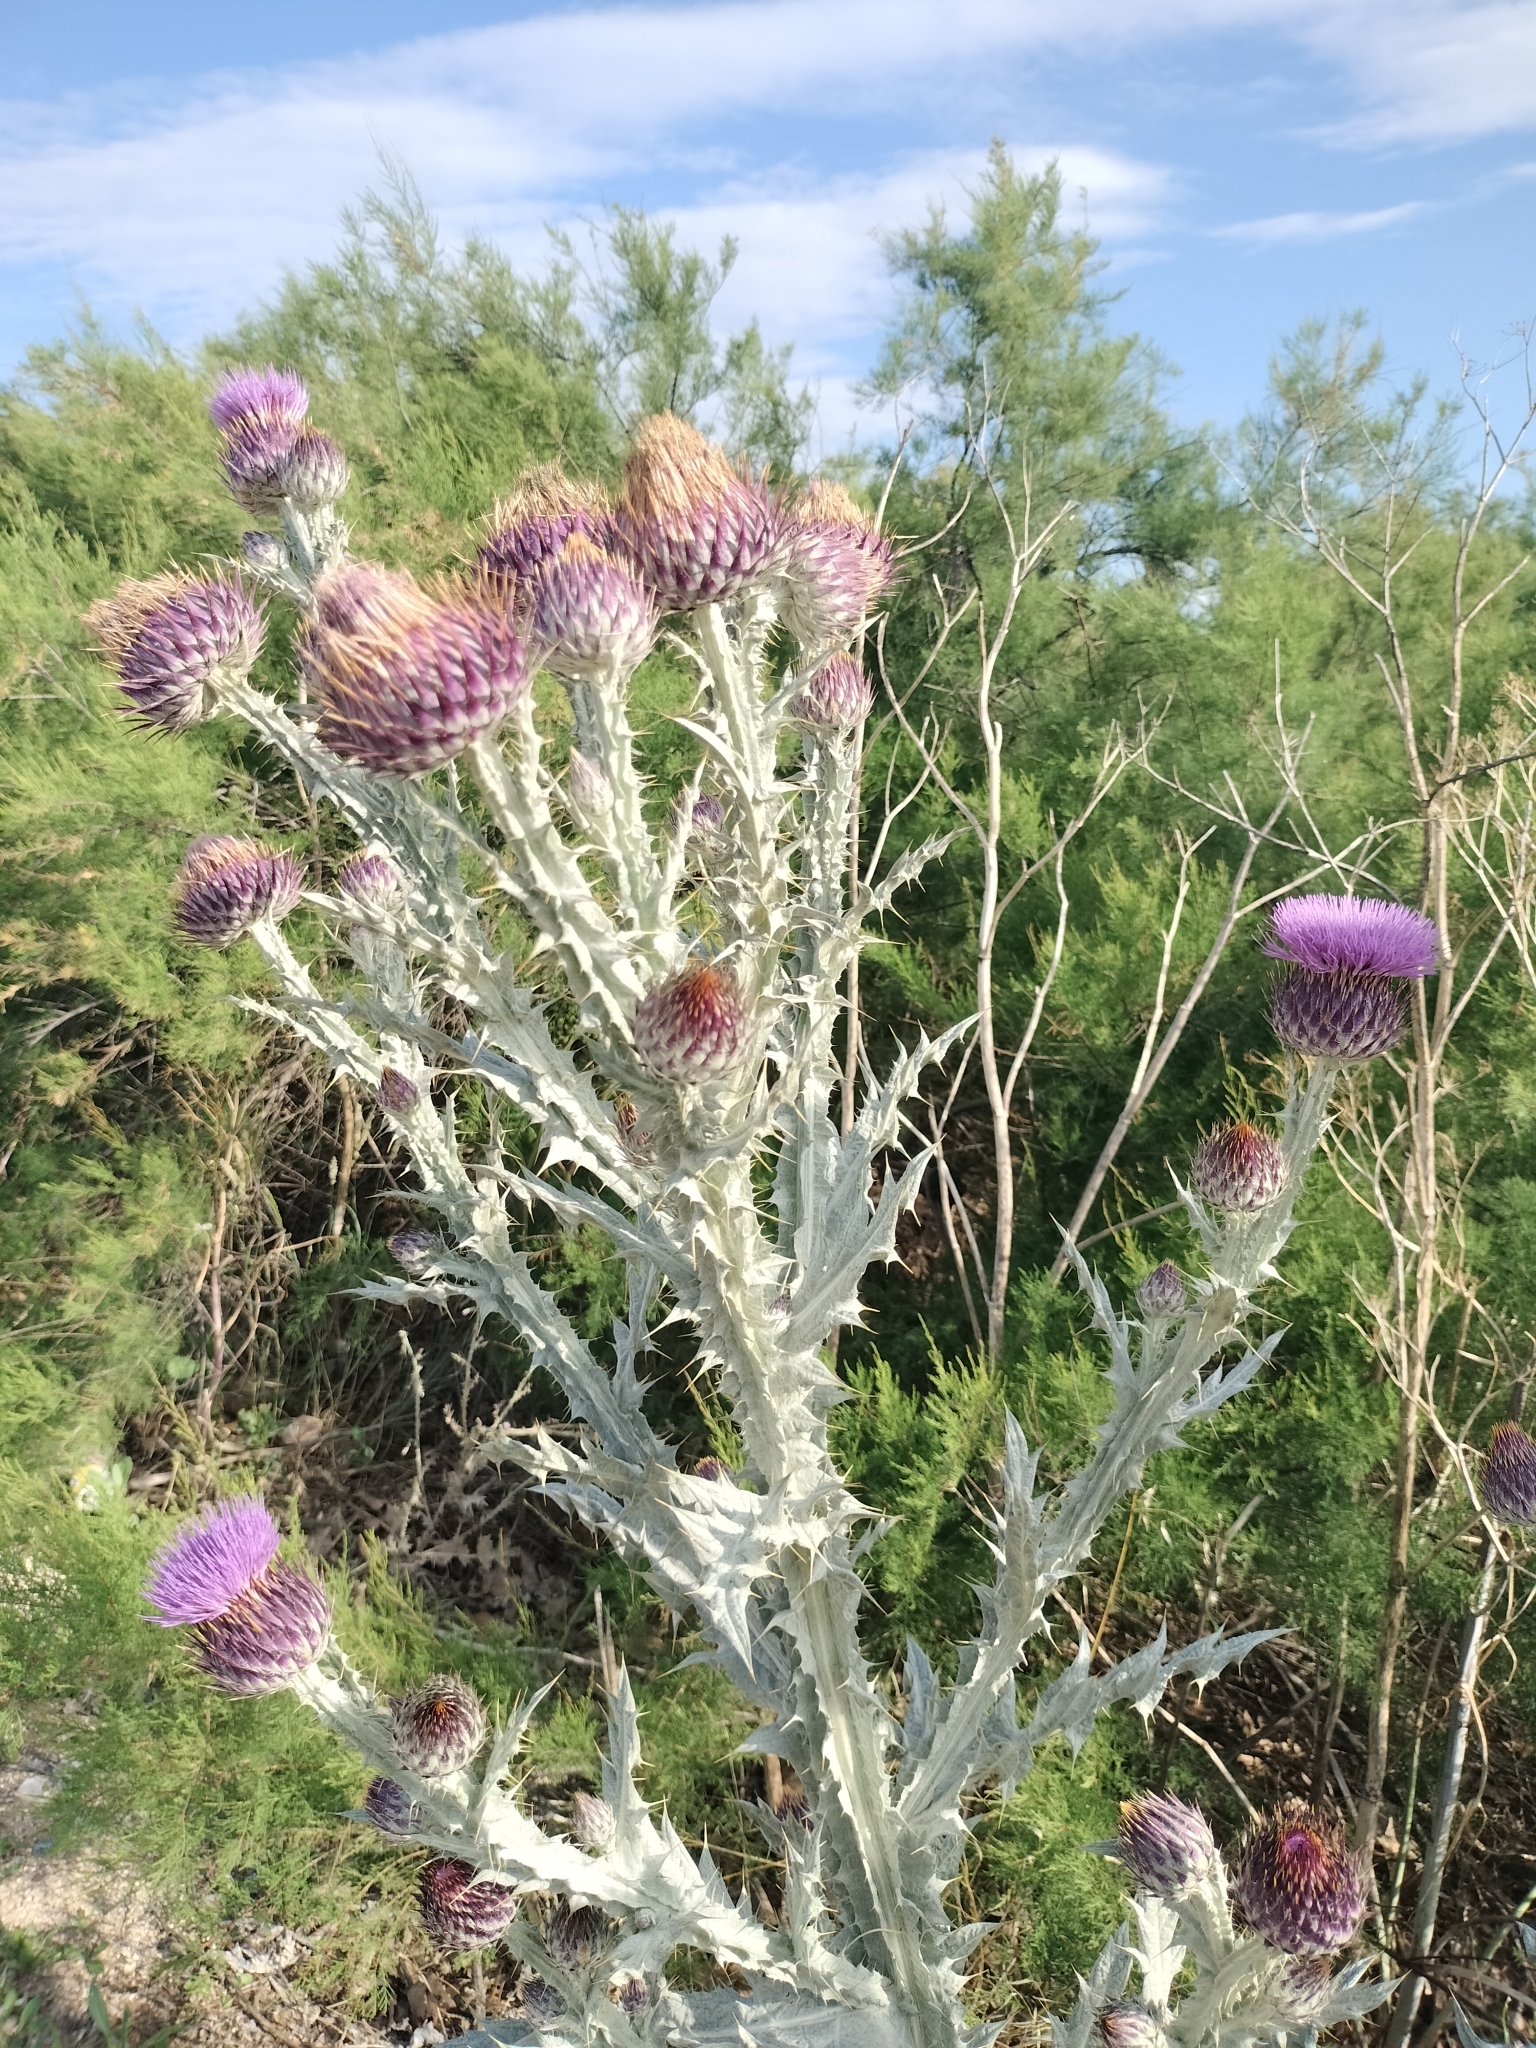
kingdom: Plantae
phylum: Tracheophyta
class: Magnoliopsida
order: Asterales
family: Asteraceae
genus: Onopordum
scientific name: Onopordum illyricum
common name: Illyrian thistle
